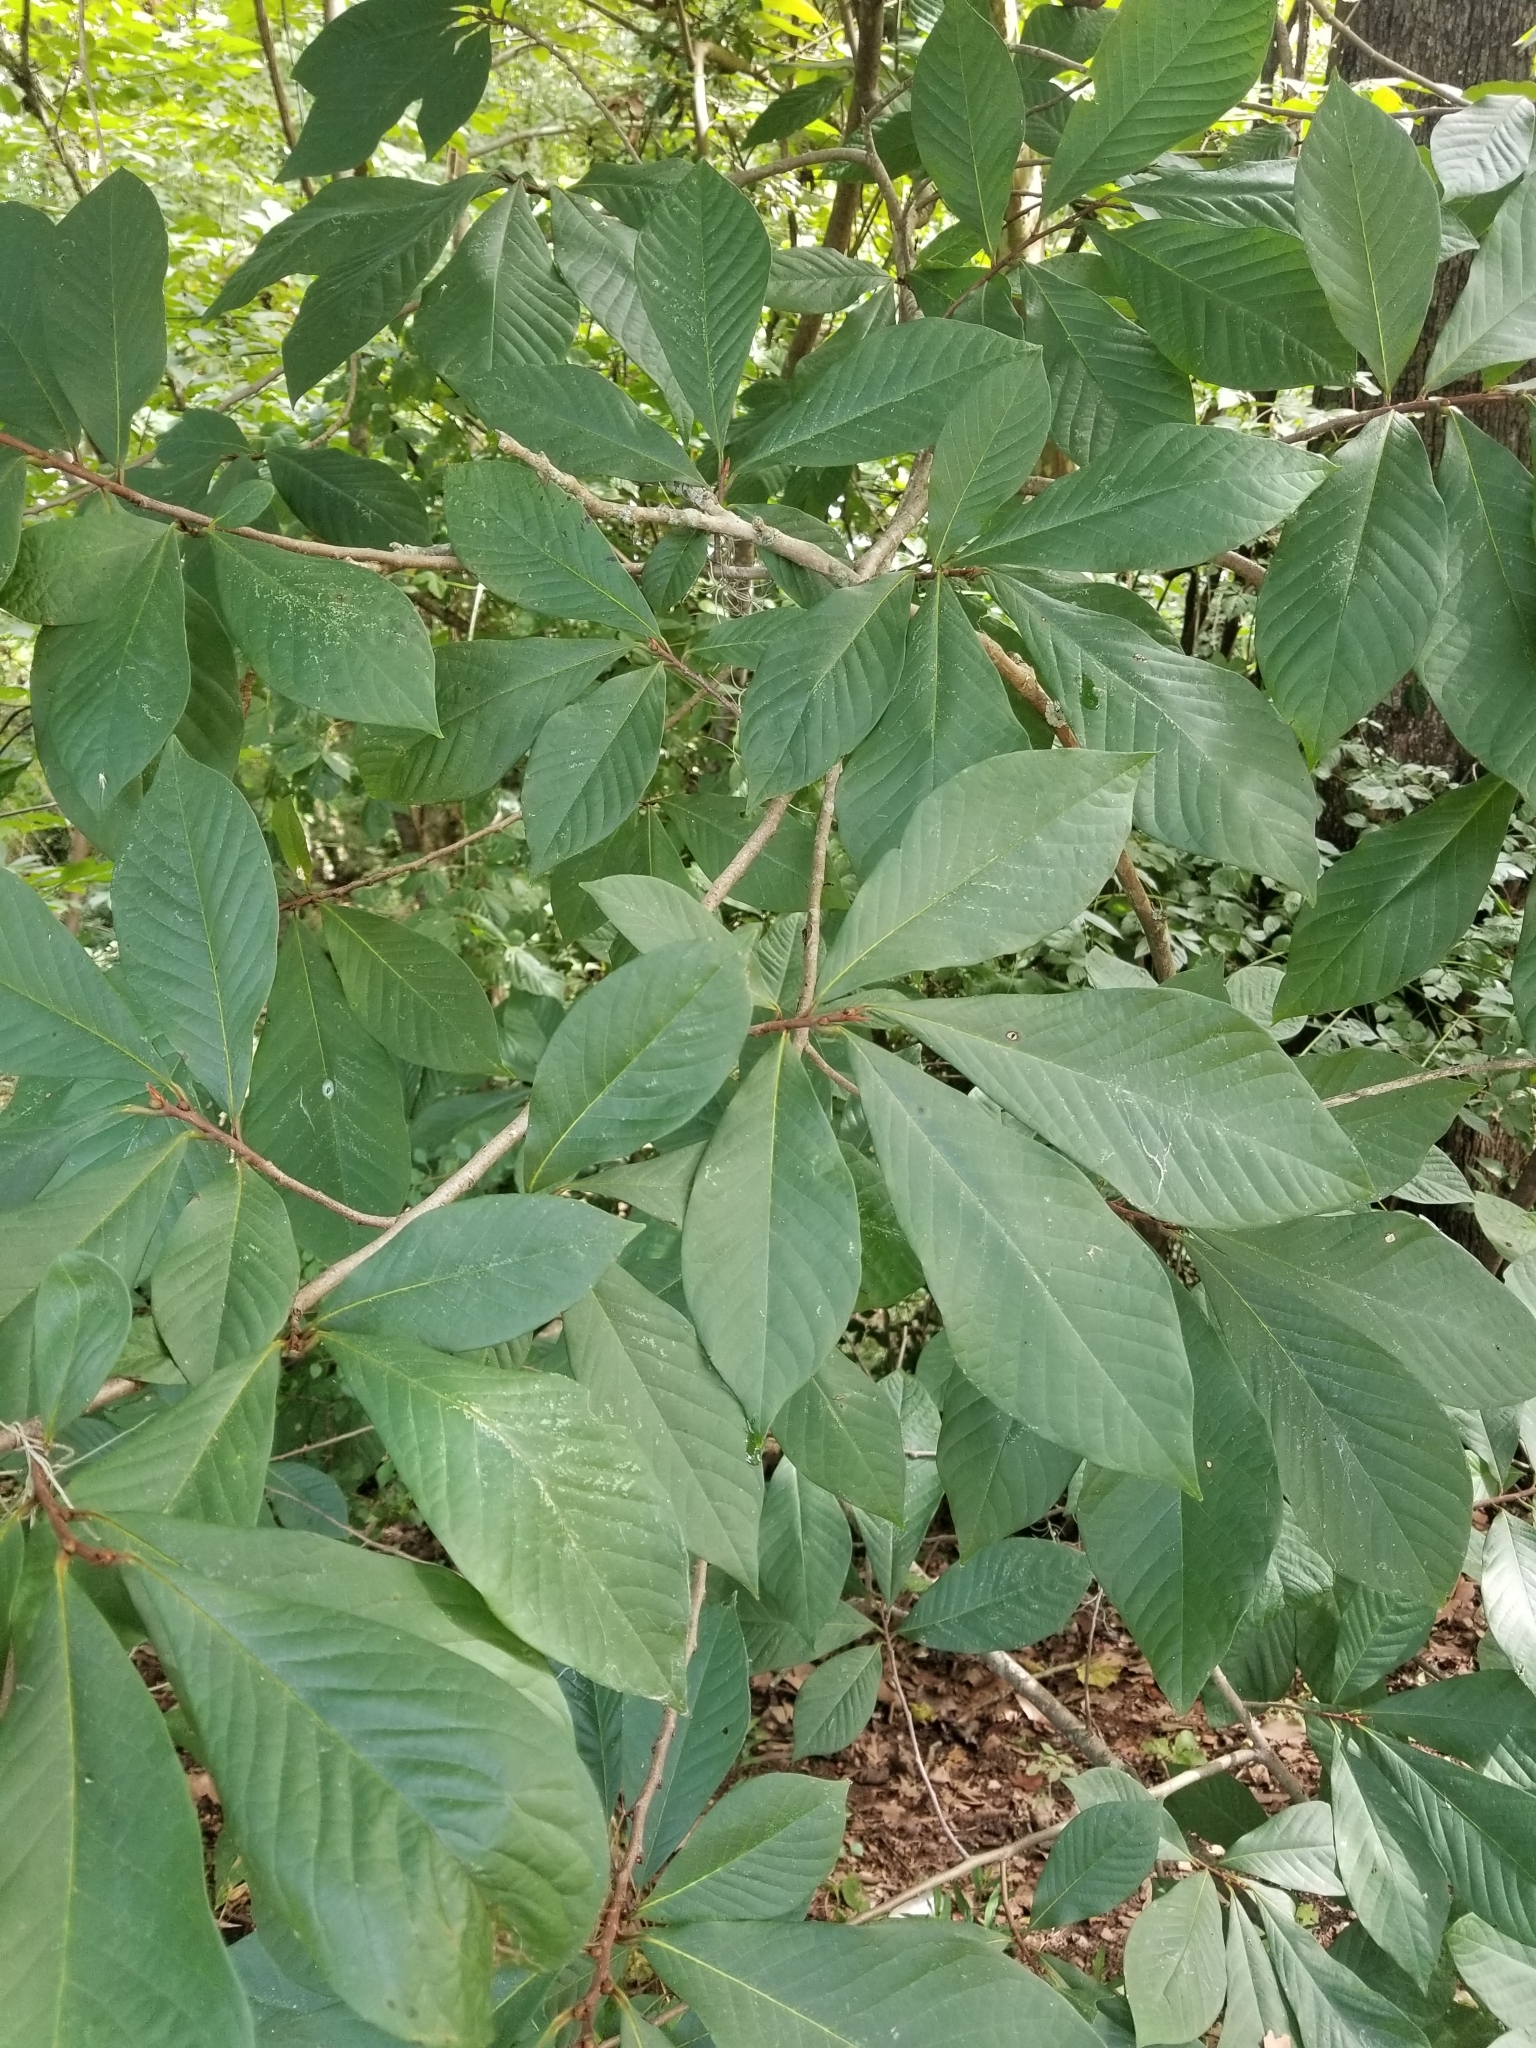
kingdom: Plantae
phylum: Tracheophyta
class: Magnoliopsida
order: Magnoliales
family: Annonaceae
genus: Asimina
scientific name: Asimina triloba
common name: Dog-banana
